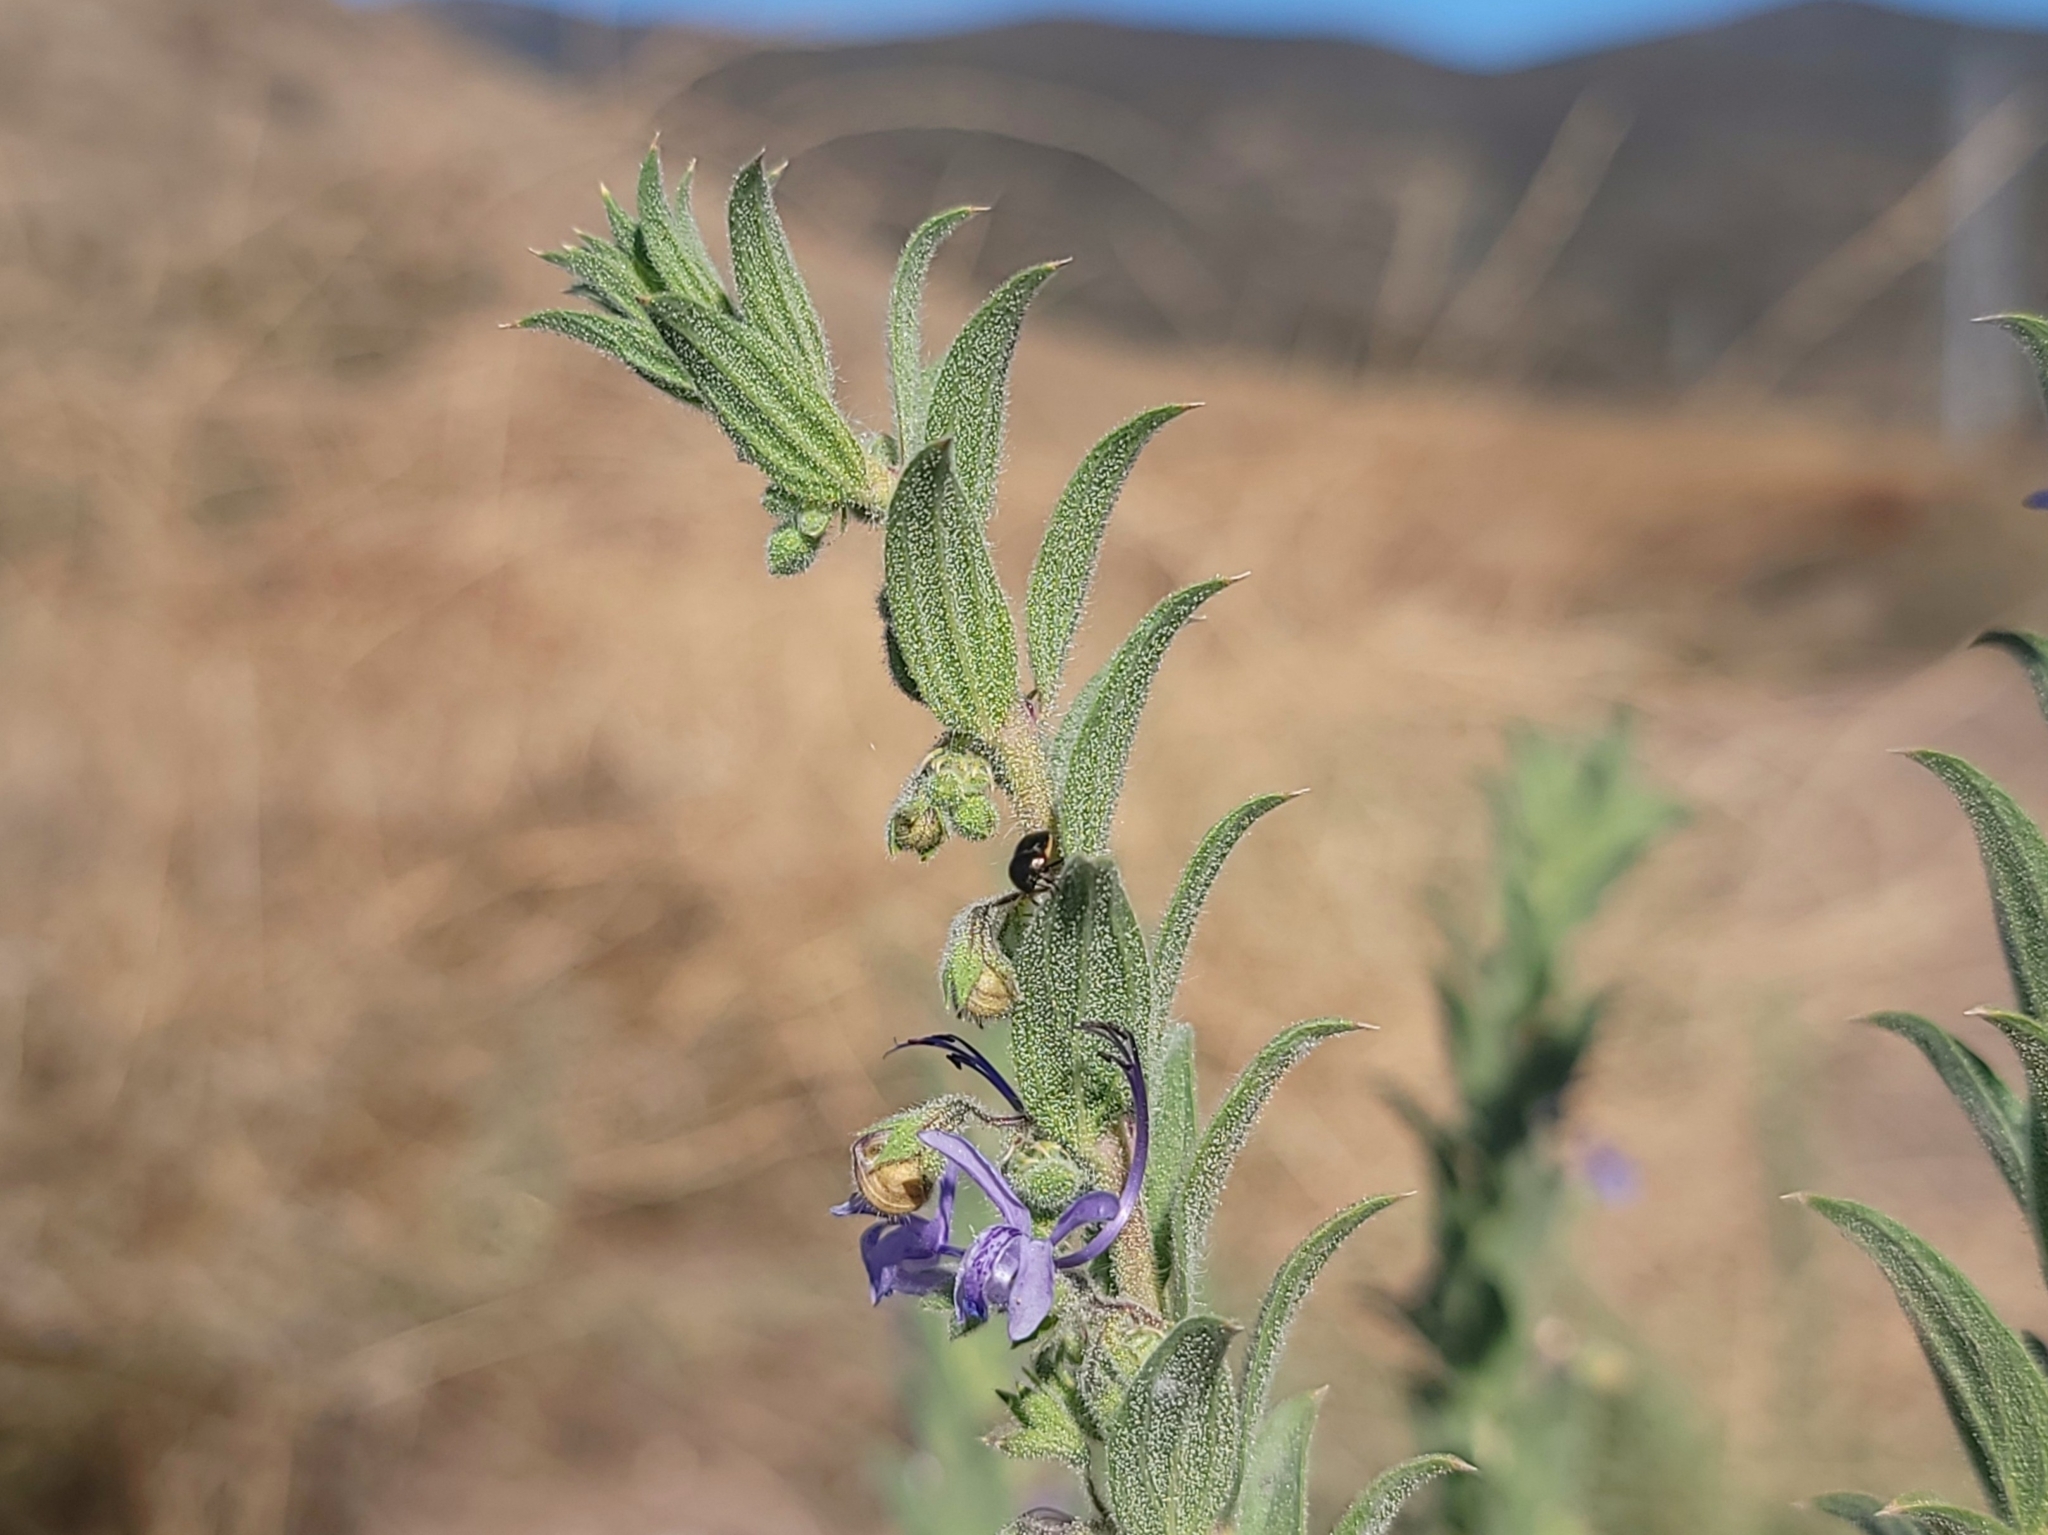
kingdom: Plantae
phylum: Tracheophyta
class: Magnoliopsida
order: Lamiales
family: Lamiaceae
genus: Trichostema
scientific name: Trichostema lanceolatum
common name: Vinegar-weed
